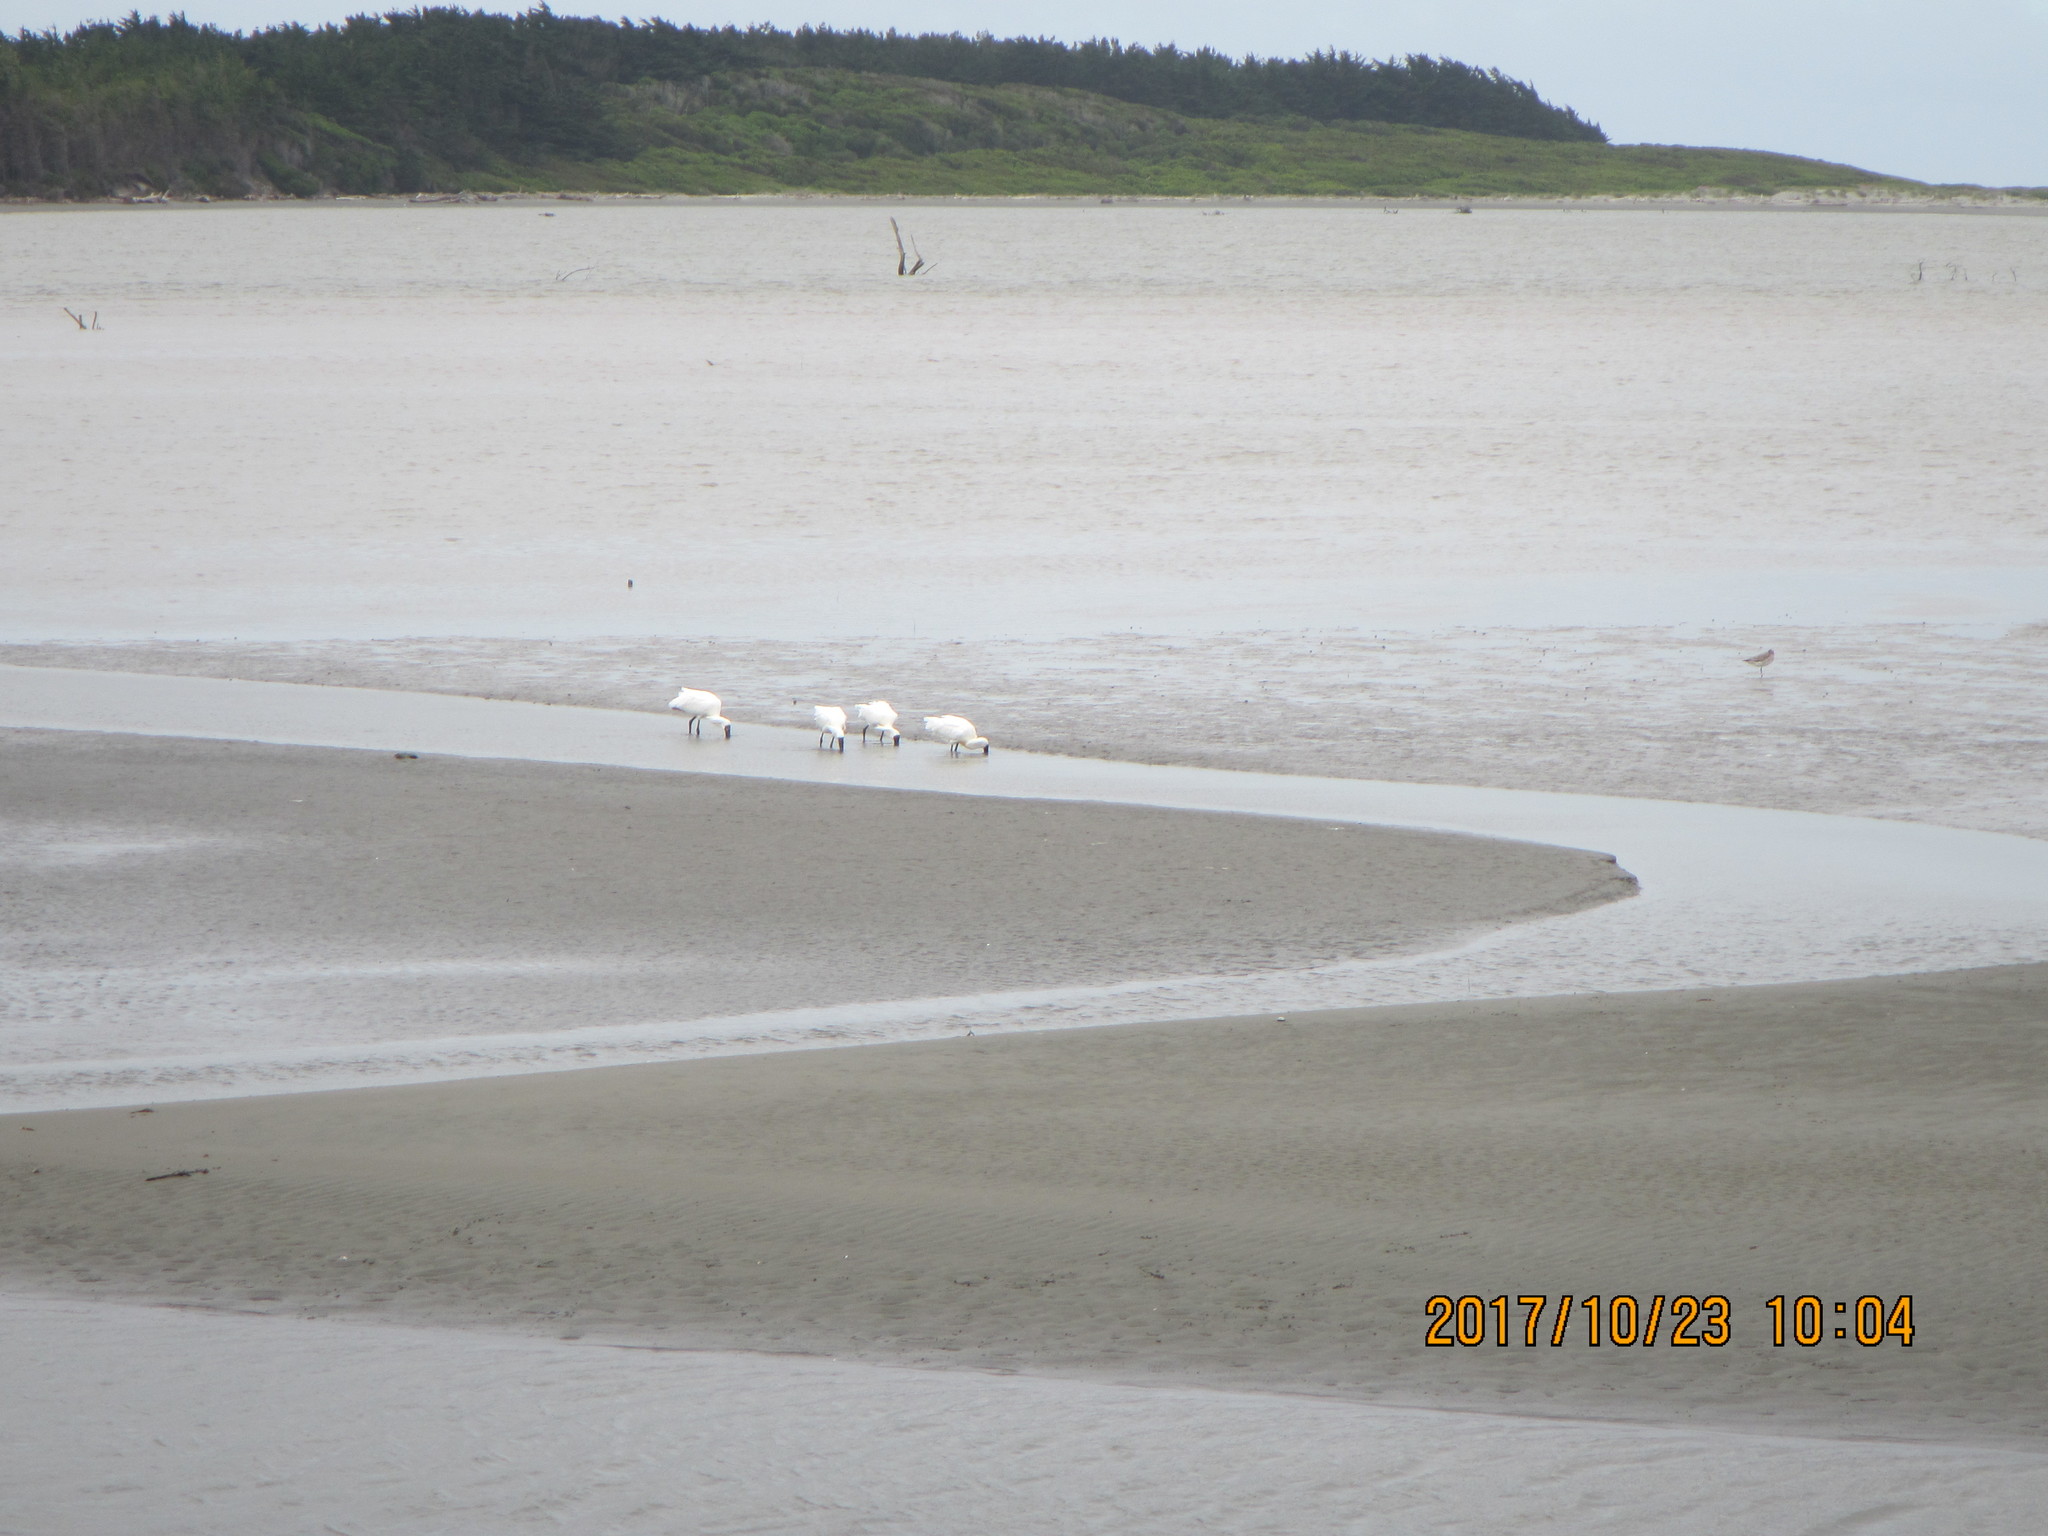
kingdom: Animalia
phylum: Chordata
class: Aves
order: Pelecaniformes
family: Threskiornithidae
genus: Platalea
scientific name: Platalea regia
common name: Royal spoonbill
